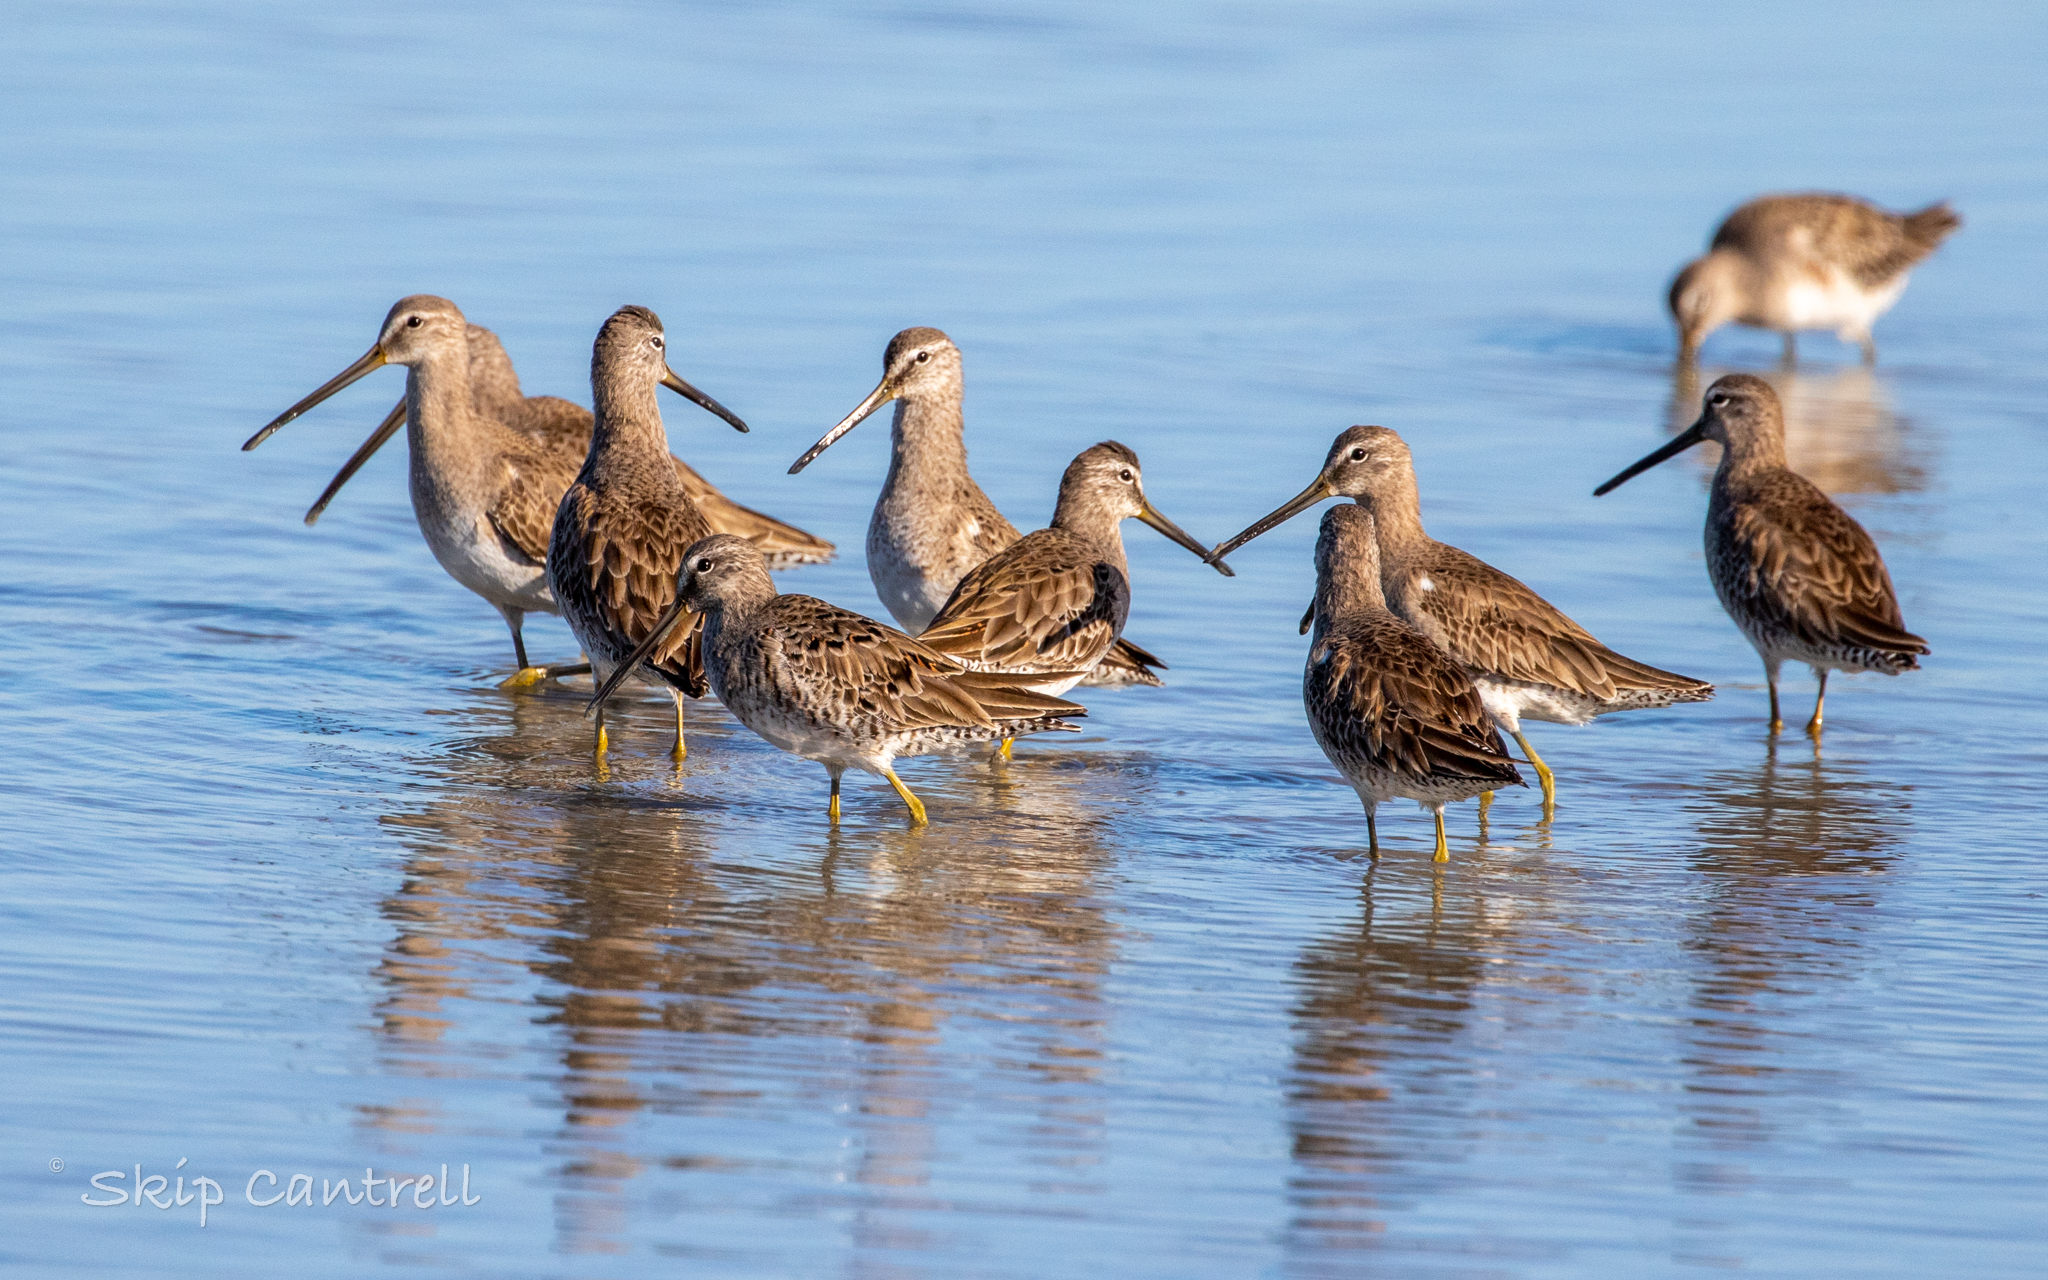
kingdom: Animalia
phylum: Chordata
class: Aves
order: Charadriiformes
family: Scolopacidae
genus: Limnodromus
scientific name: Limnodromus scolopaceus
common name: Long-billed dowitcher
